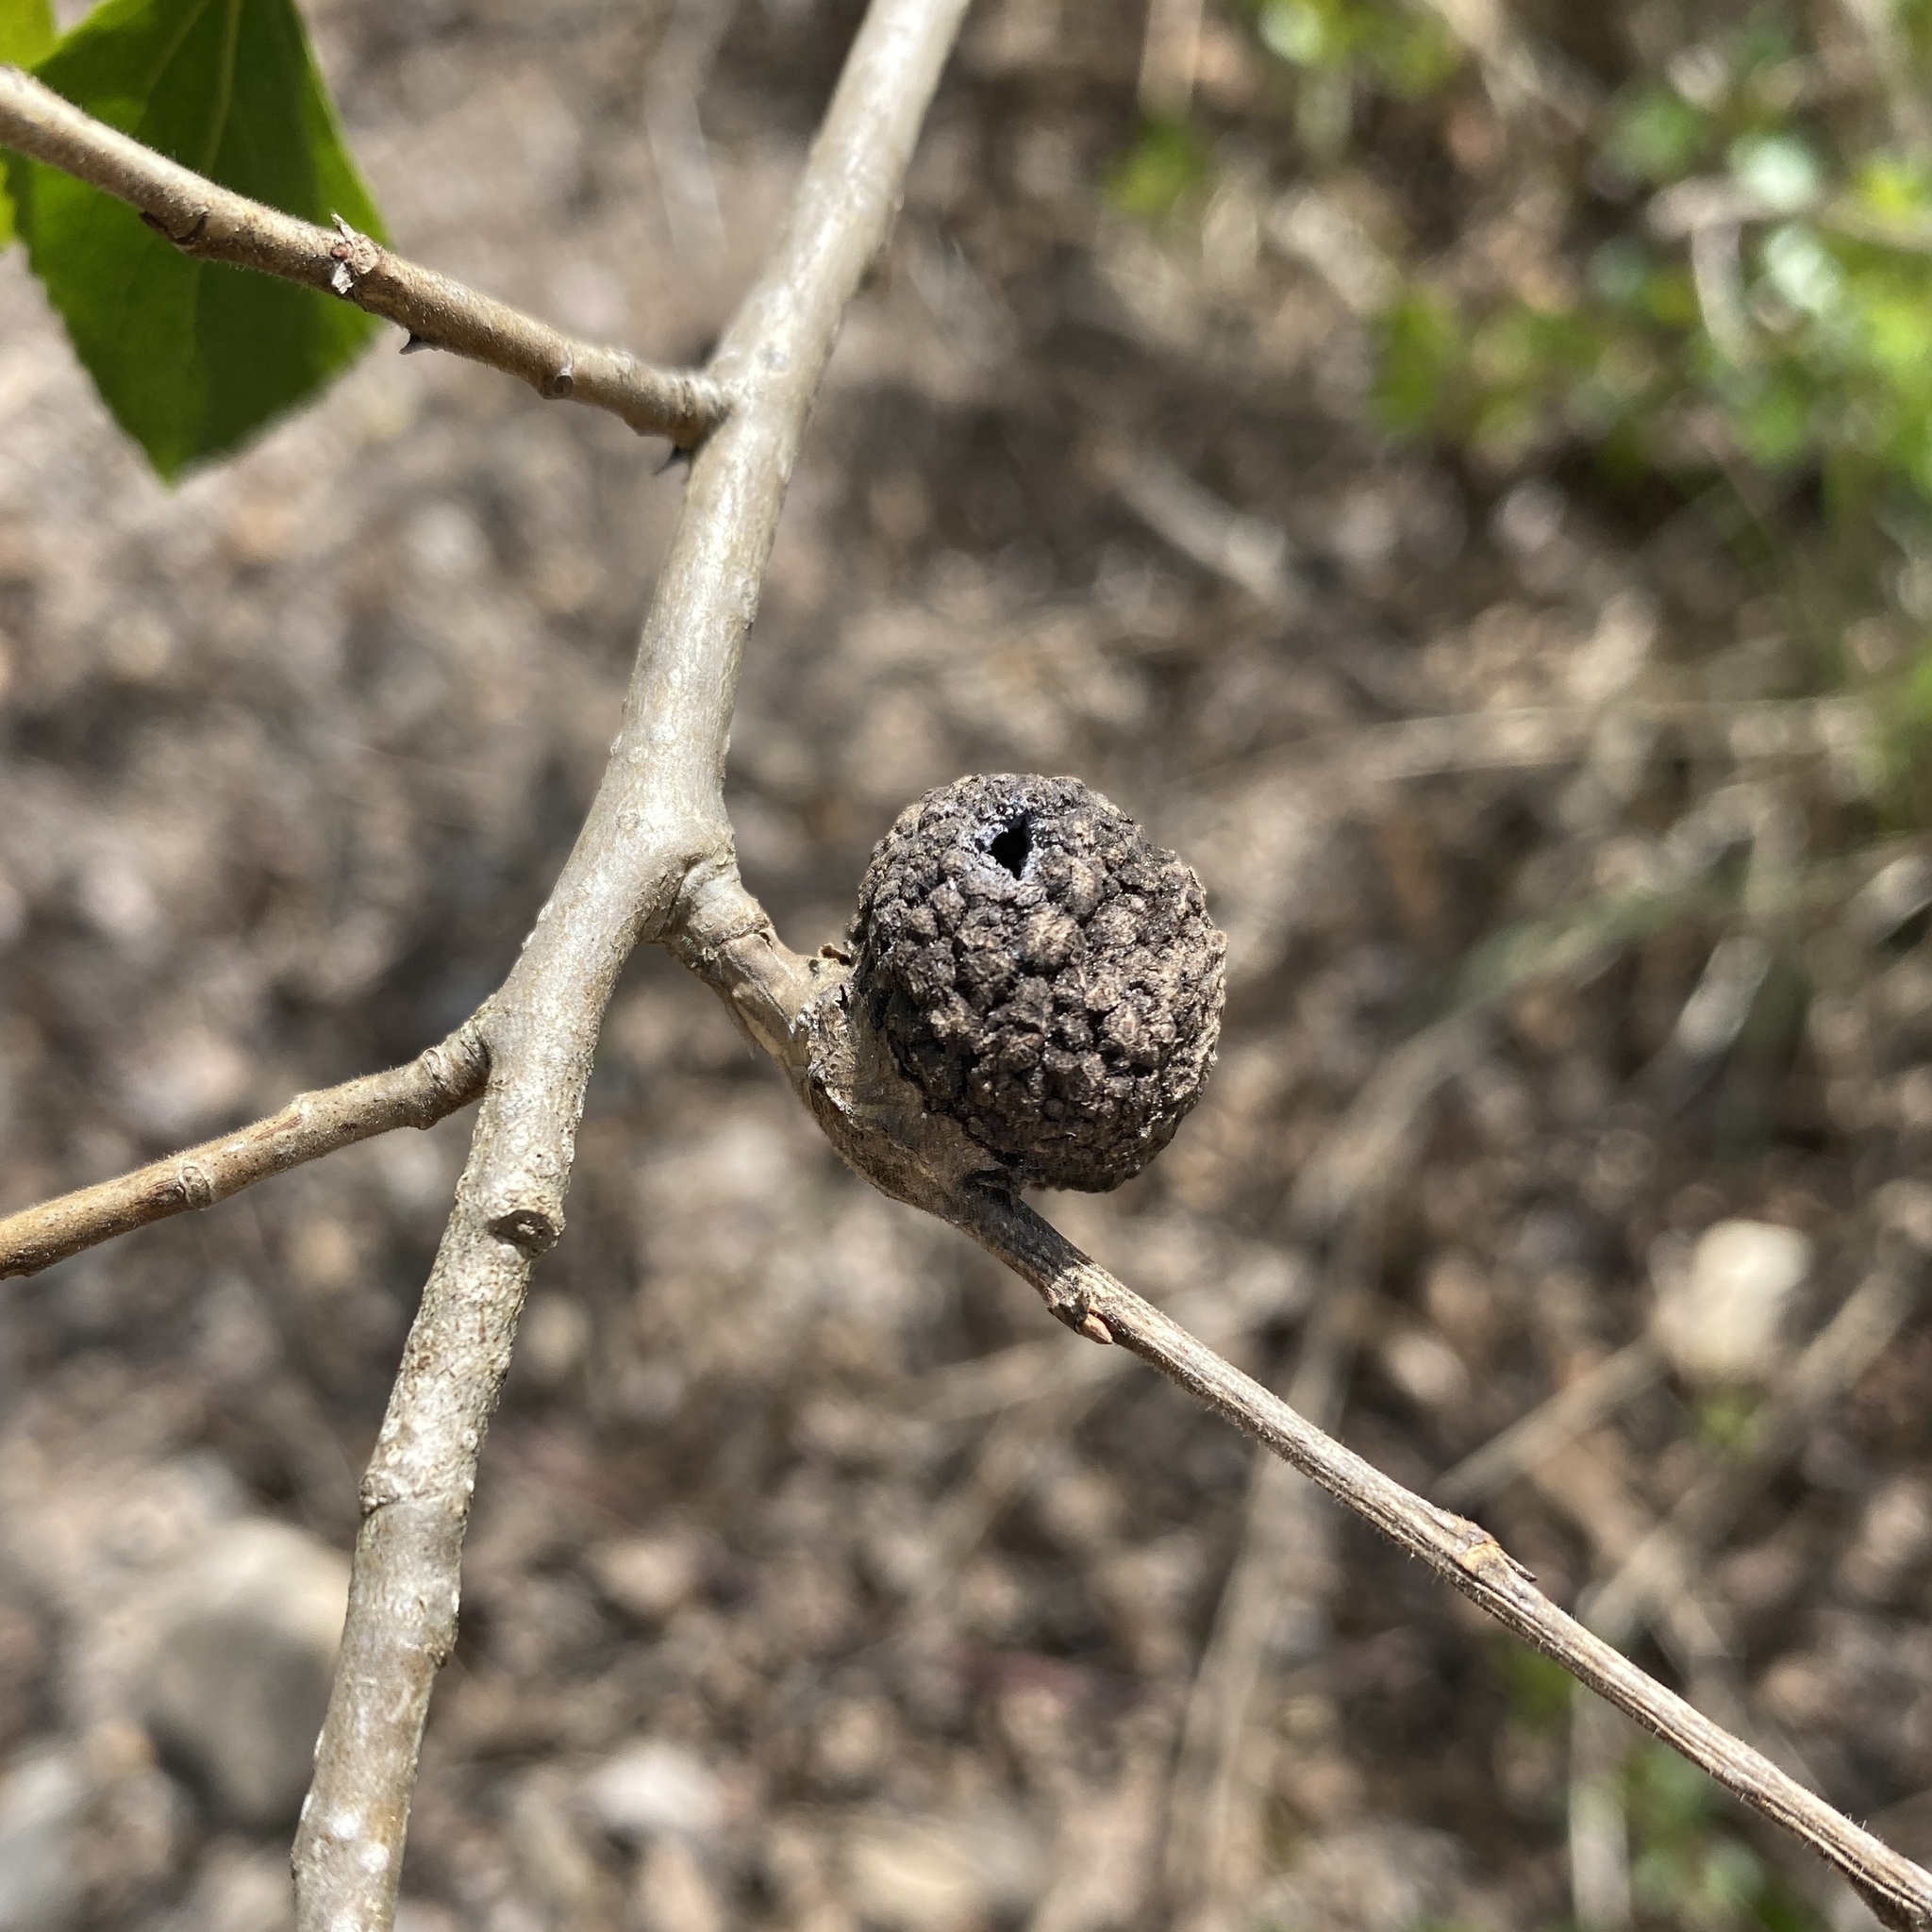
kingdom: Animalia
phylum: Arthropoda
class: Insecta
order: Hemiptera
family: Aphididae
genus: Pemphigus
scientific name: Pemphigus immunis
